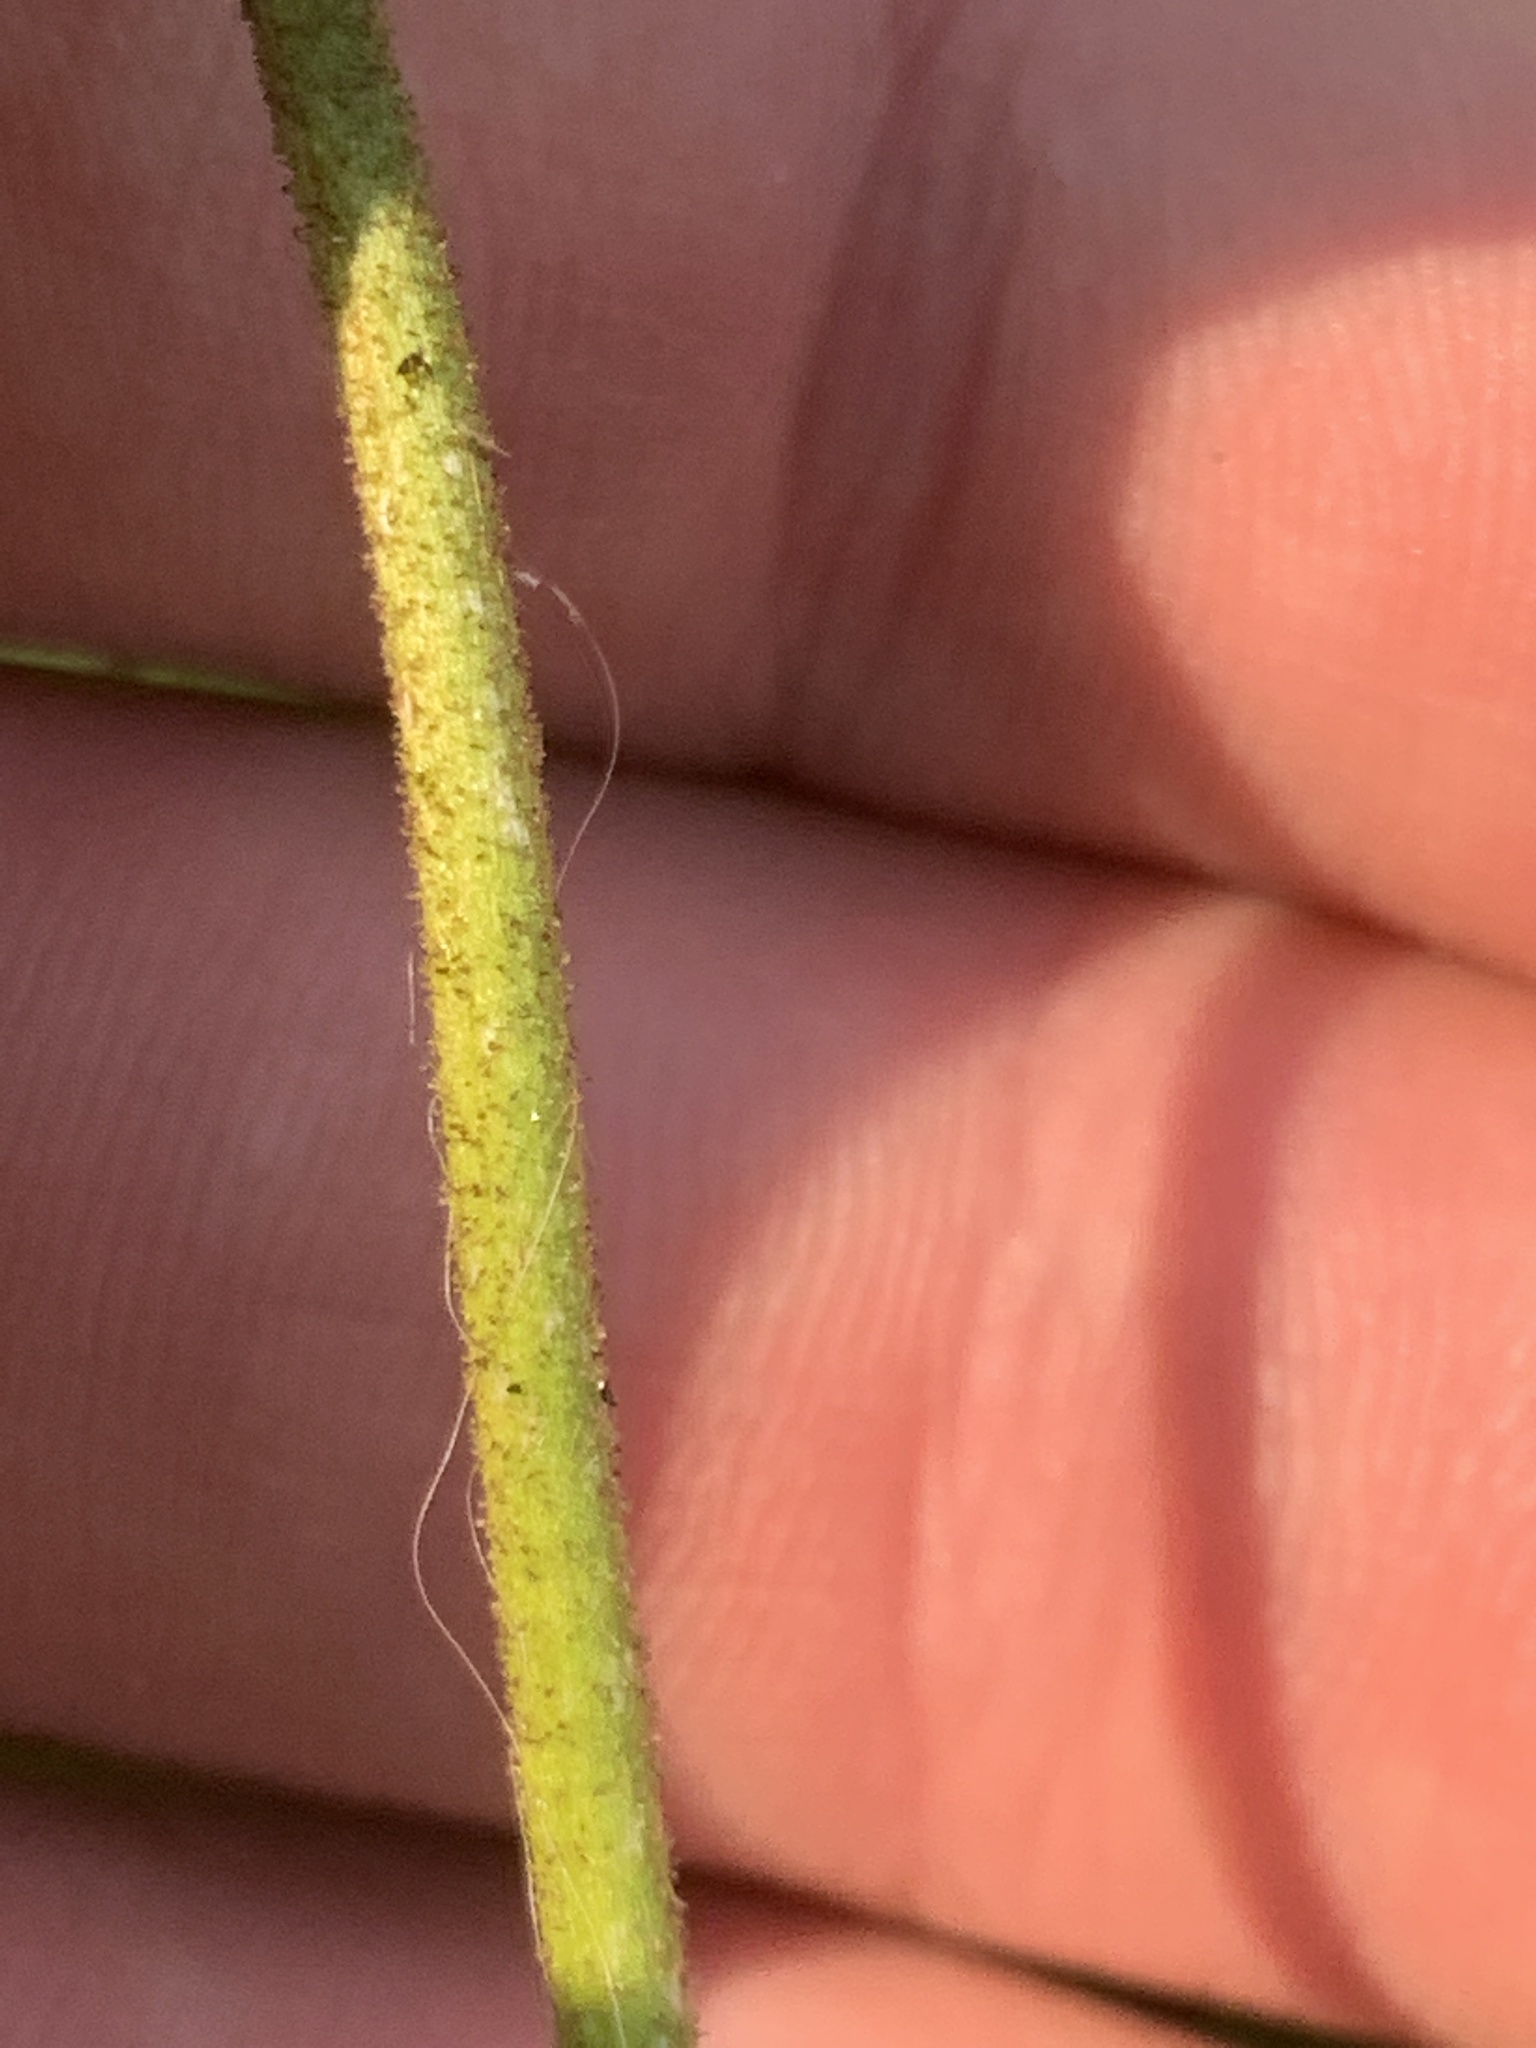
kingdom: Plantae
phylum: Tracheophyta
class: Liliopsida
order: Alismatales
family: Tofieldiaceae
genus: Triantha
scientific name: Triantha occidentalis
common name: Western false asphodel
